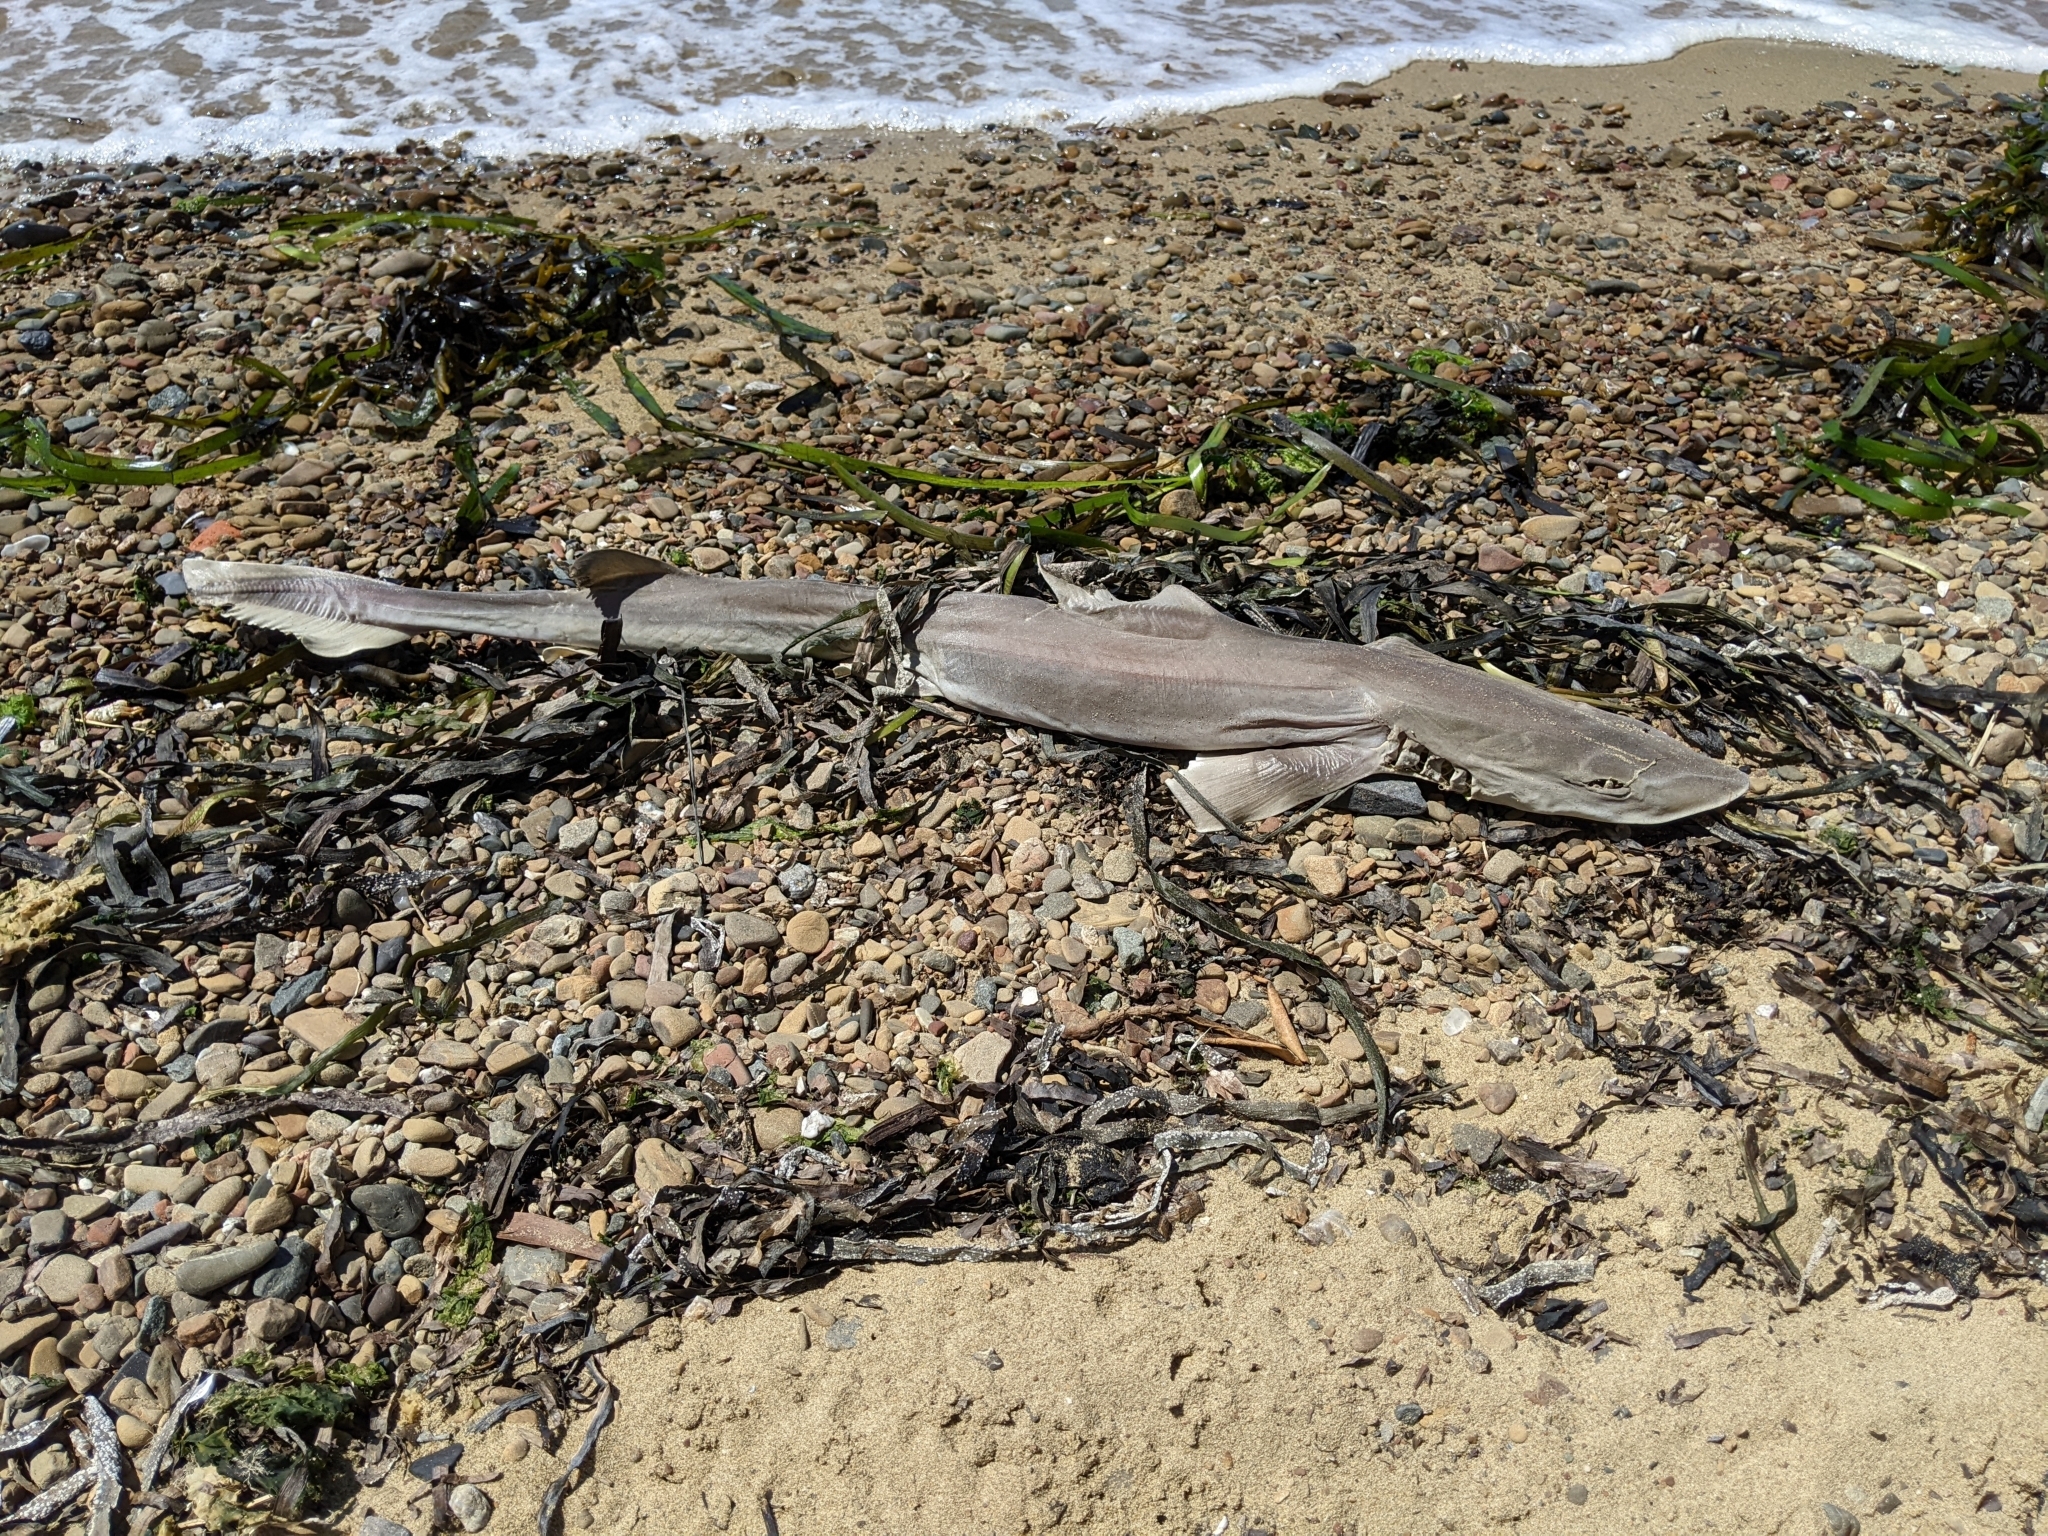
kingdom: Animalia
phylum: Chordata
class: Elasmobranchii
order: Carcharhiniformes
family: Triakidae
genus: Mustelus
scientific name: Mustelus henlei
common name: Brown smooth-hound
